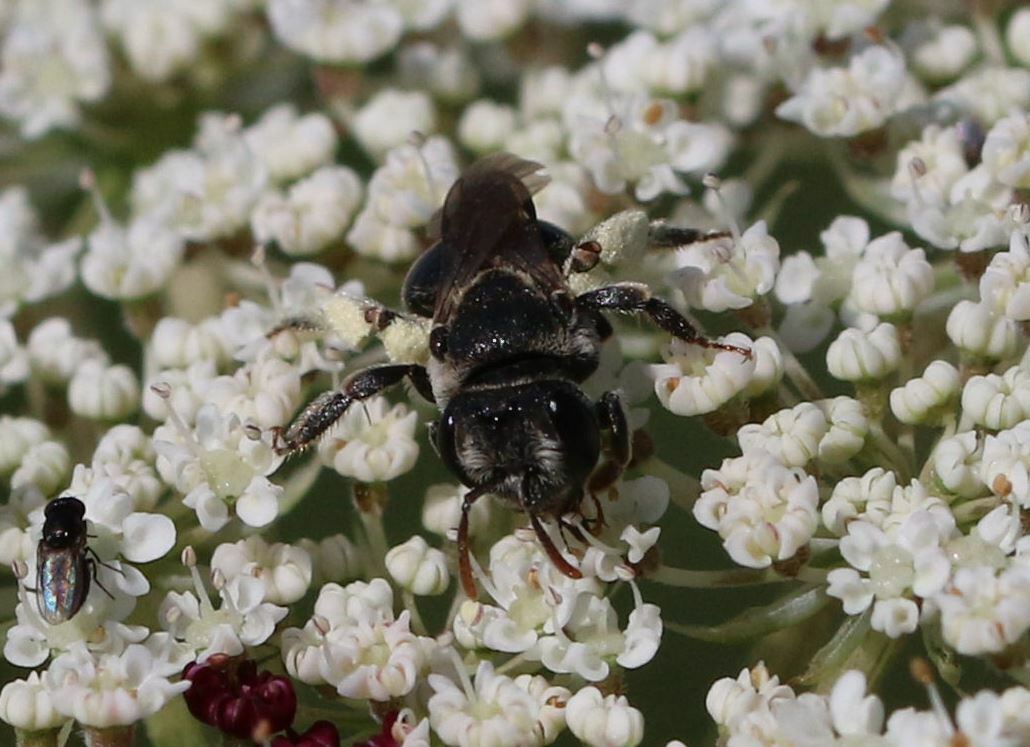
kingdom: Animalia
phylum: Arthropoda
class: Insecta
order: Hymenoptera
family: Andrenidae
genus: Andrena
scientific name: Andrena colletiformis
